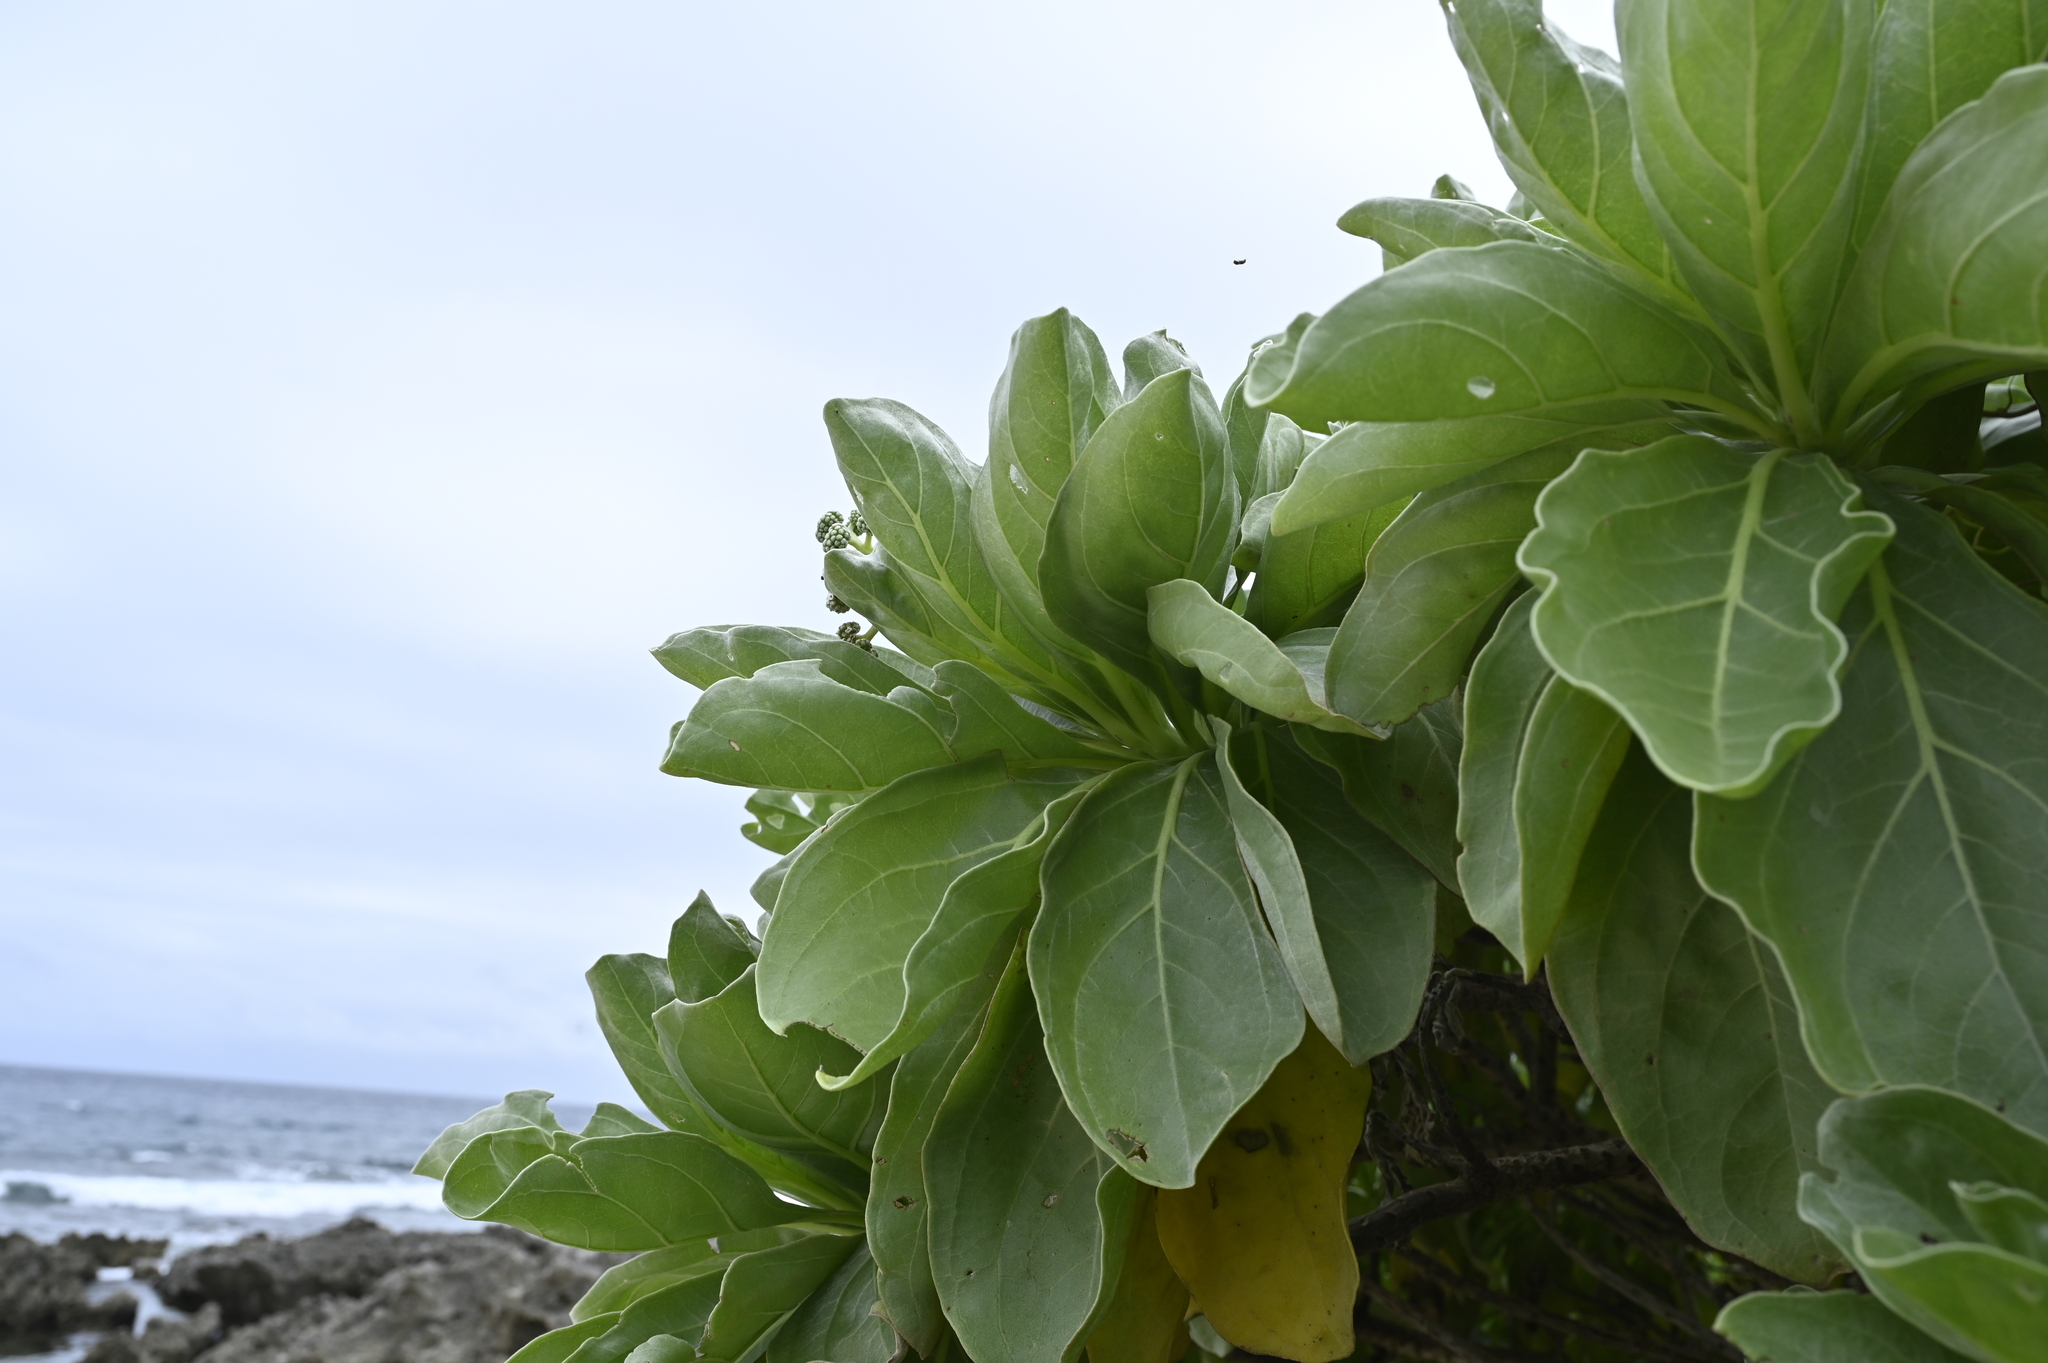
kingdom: Plantae
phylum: Tracheophyta
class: Magnoliopsida
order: Boraginales
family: Heliotropiaceae
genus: Heliotropium
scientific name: Heliotropium velutinum
